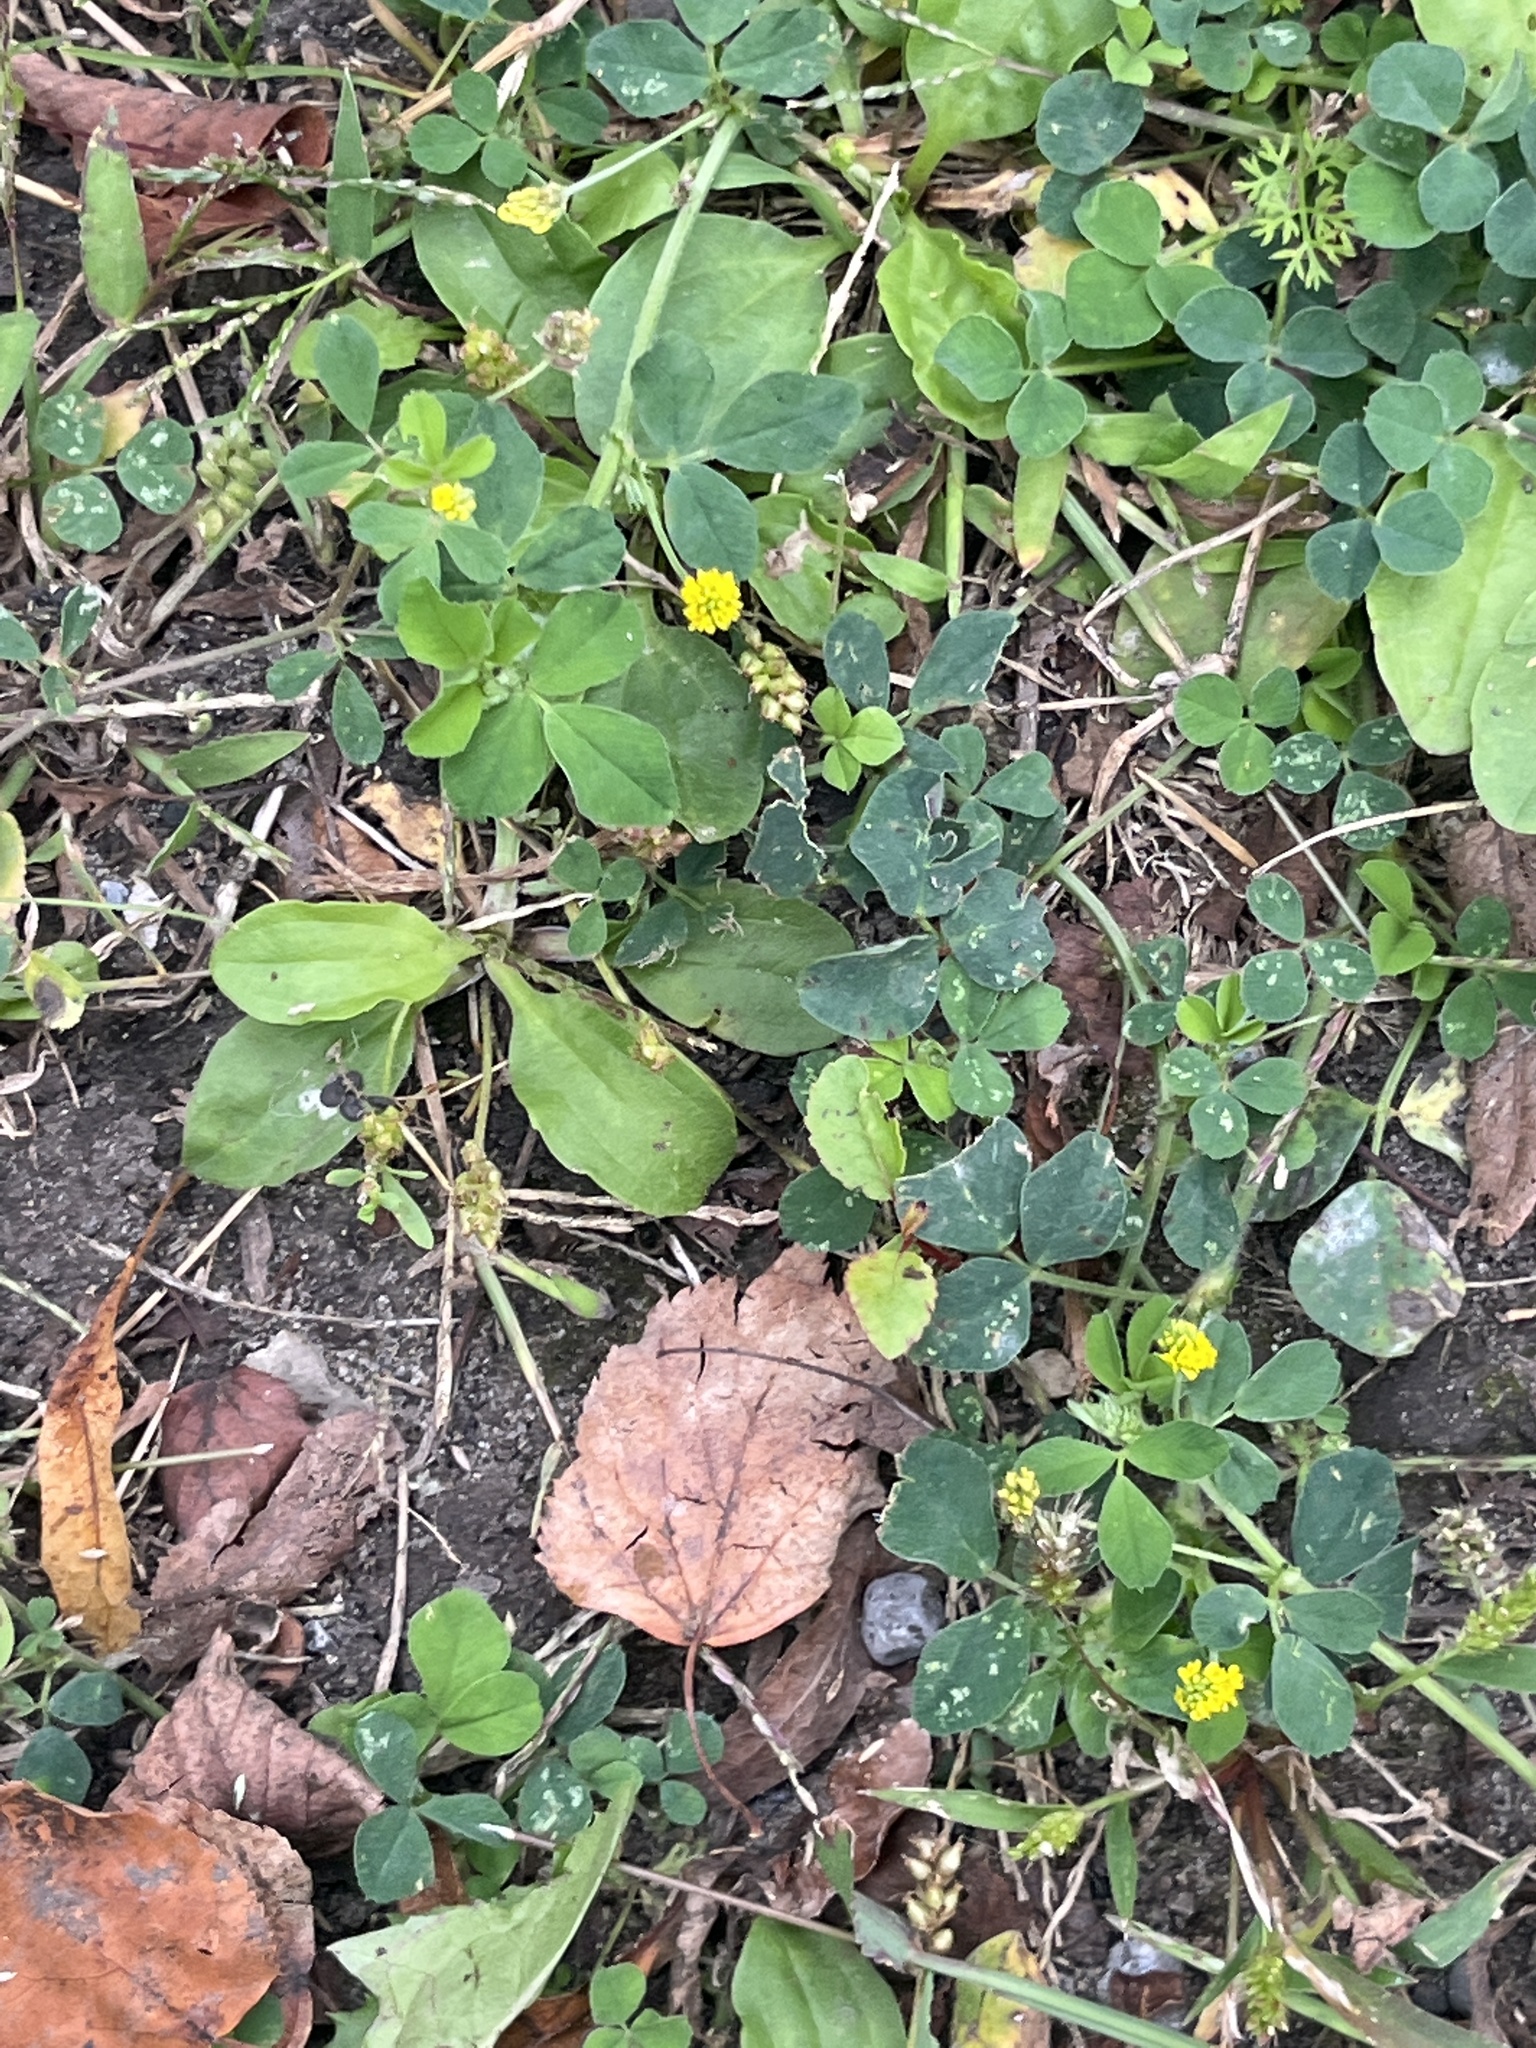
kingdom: Plantae
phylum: Tracheophyta
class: Magnoliopsida
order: Fabales
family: Fabaceae
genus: Medicago
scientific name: Medicago lupulina
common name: Black medick
